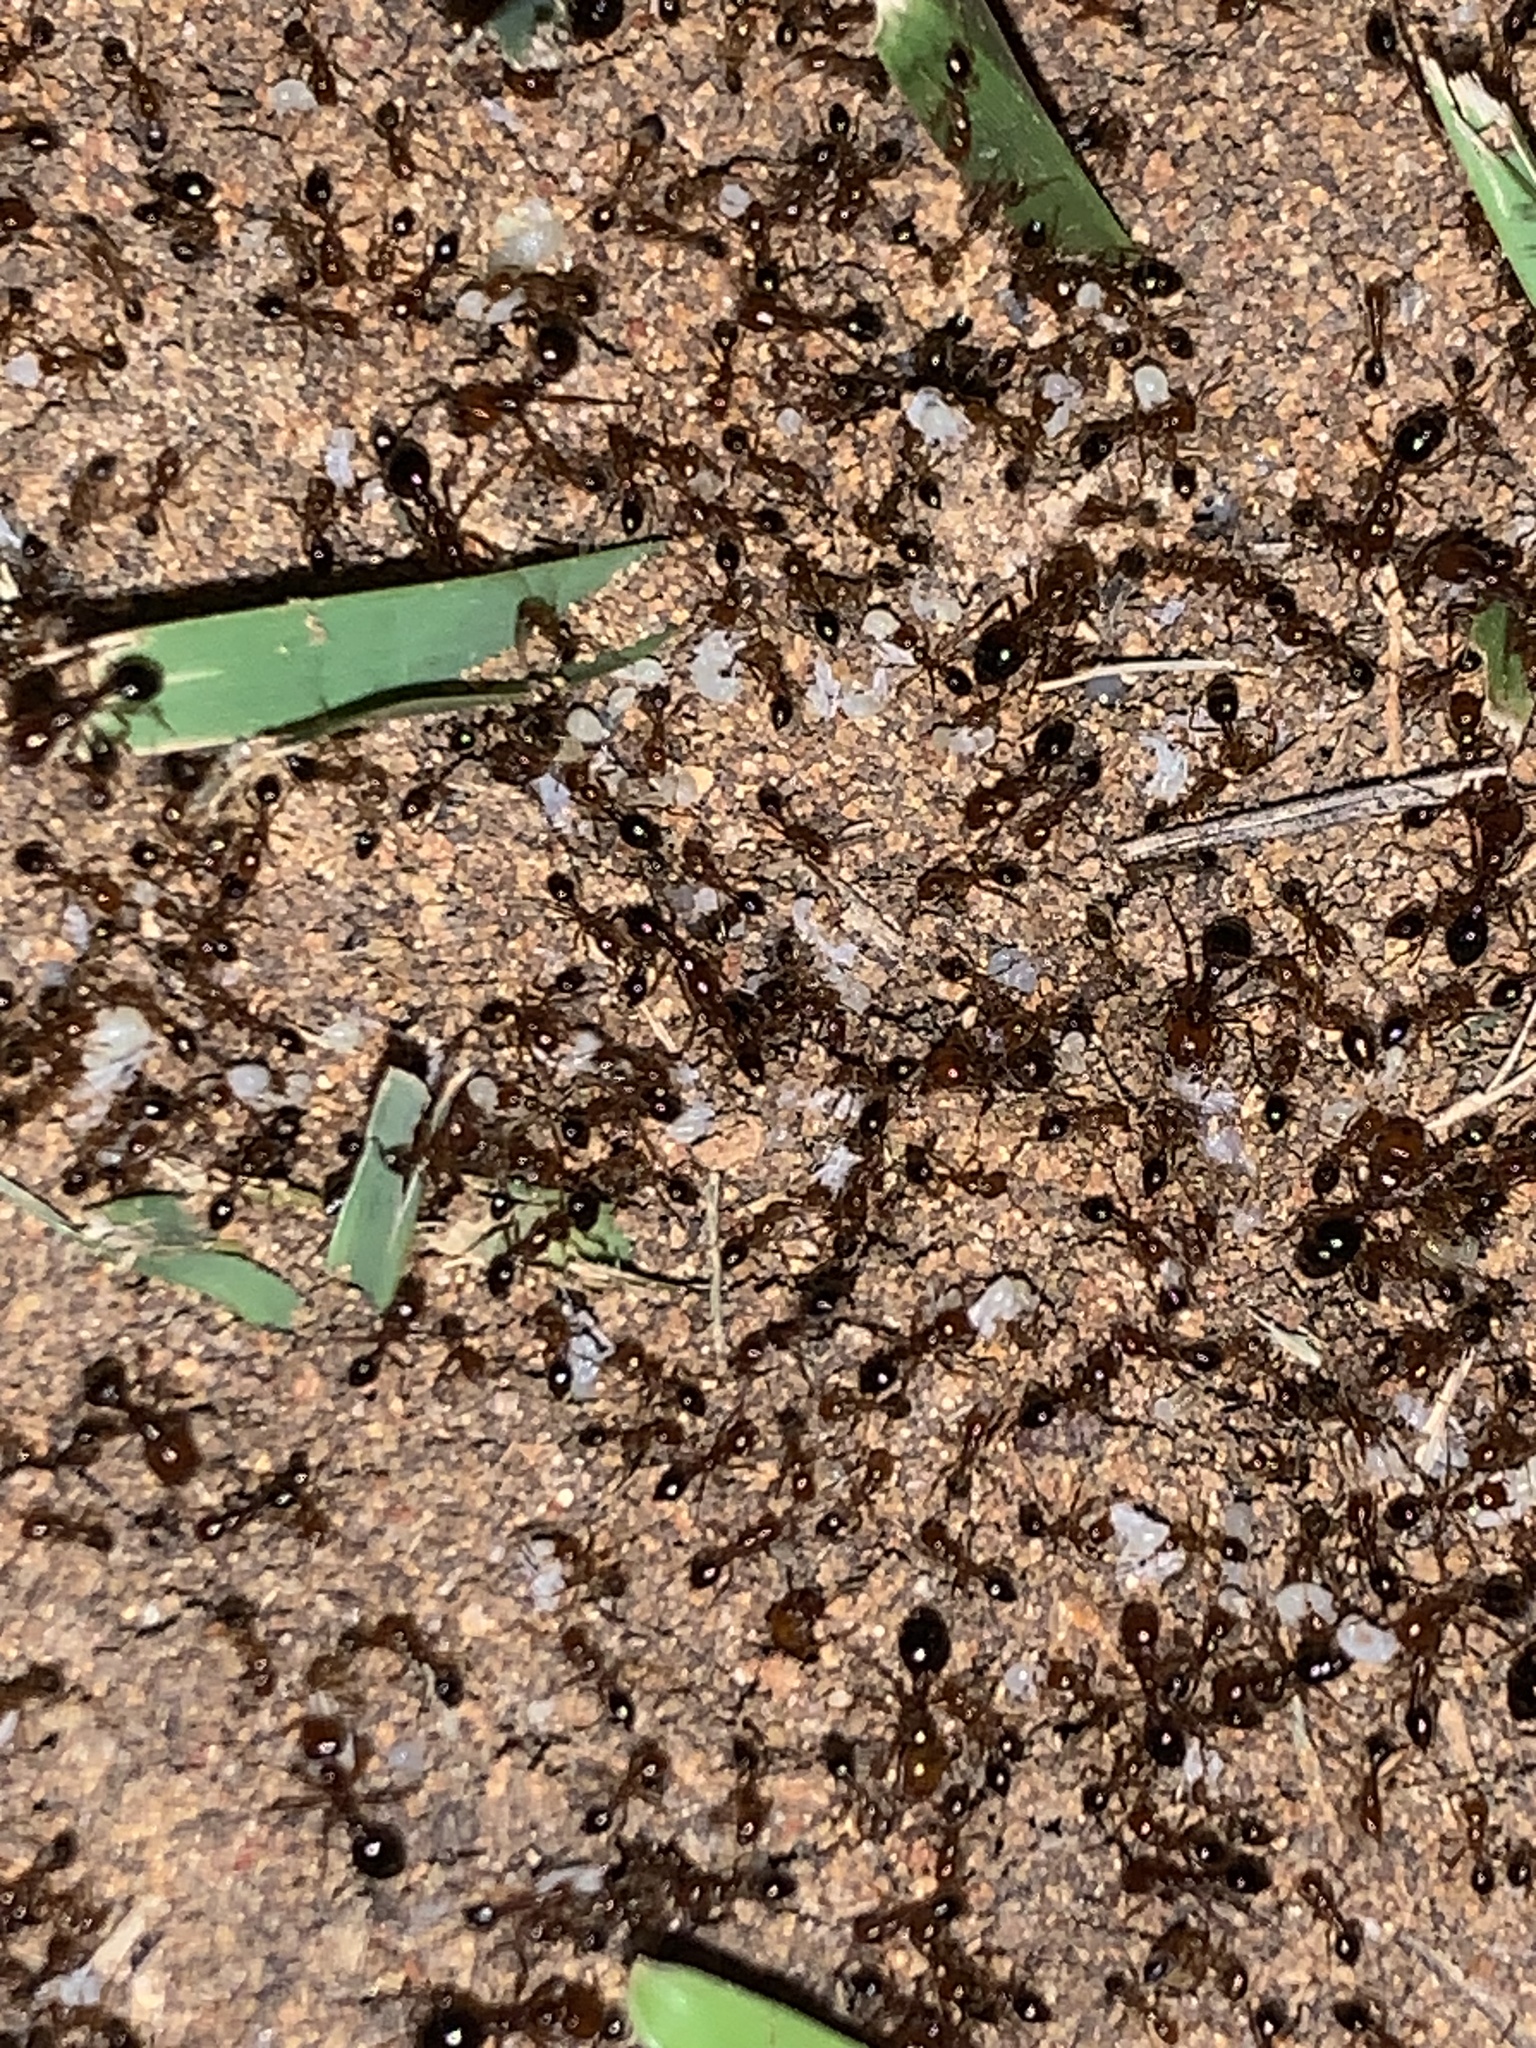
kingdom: Animalia
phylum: Arthropoda
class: Insecta
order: Hymenoptera
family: Formicidae
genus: Solenopsis
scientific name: Solenopsis invicta
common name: Red imported fire ant
